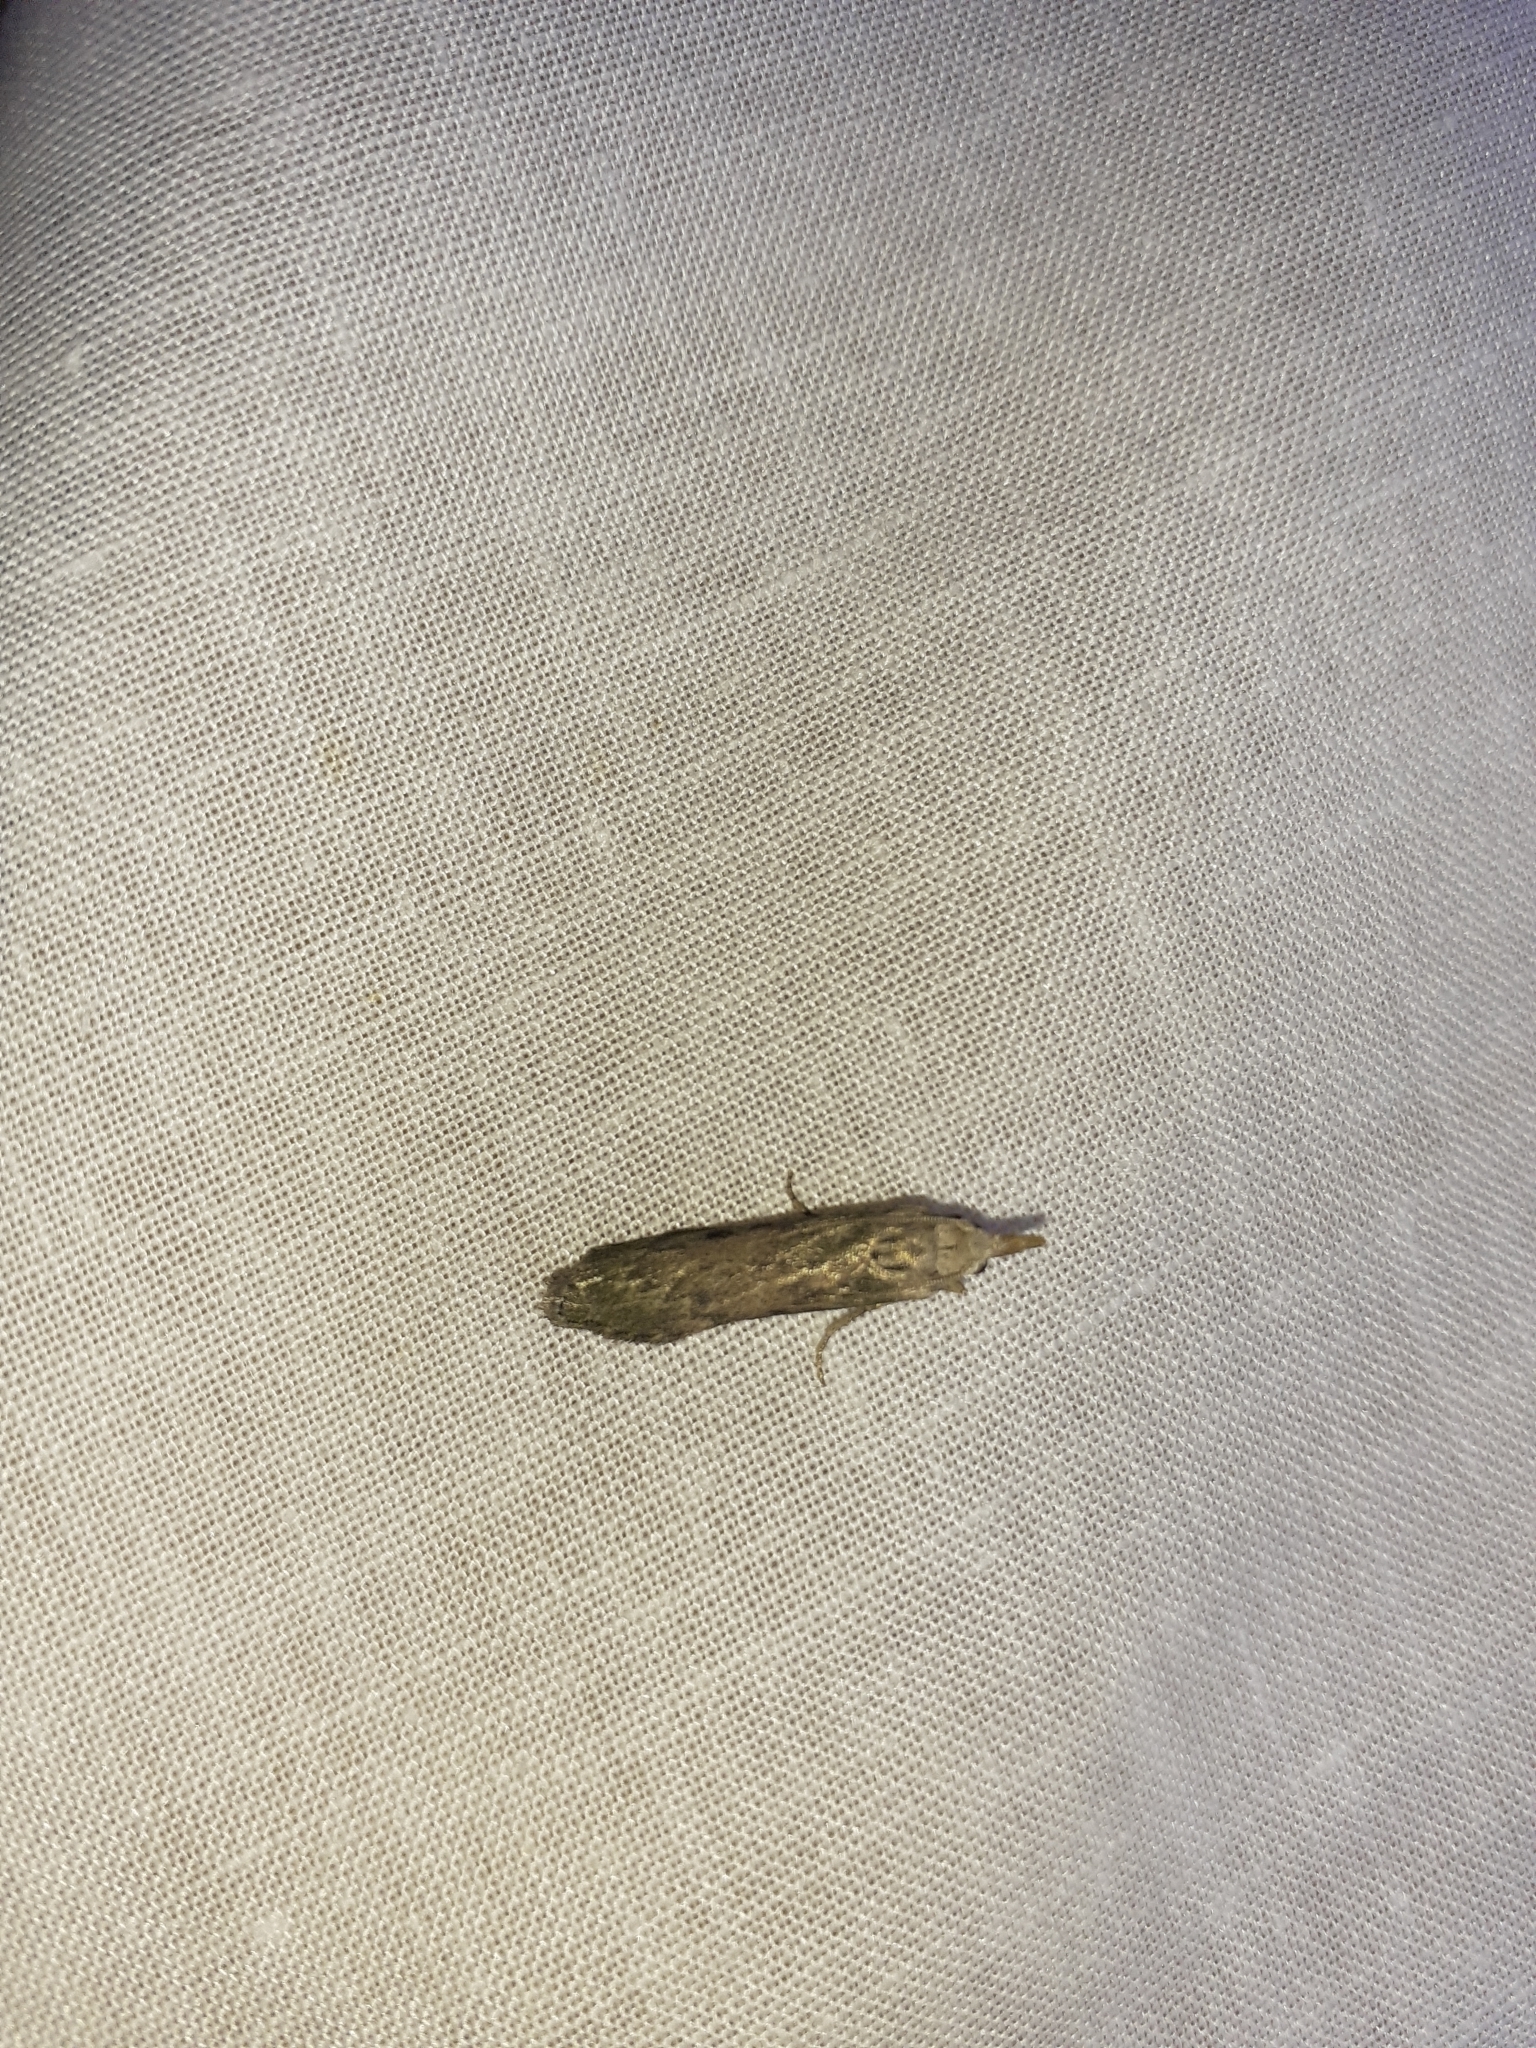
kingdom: Animalia
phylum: Arthropoda
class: Insecta
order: Lepidoptera
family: Pyralidae
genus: Aphomia
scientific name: Aphomia sociella
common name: Bee moth
